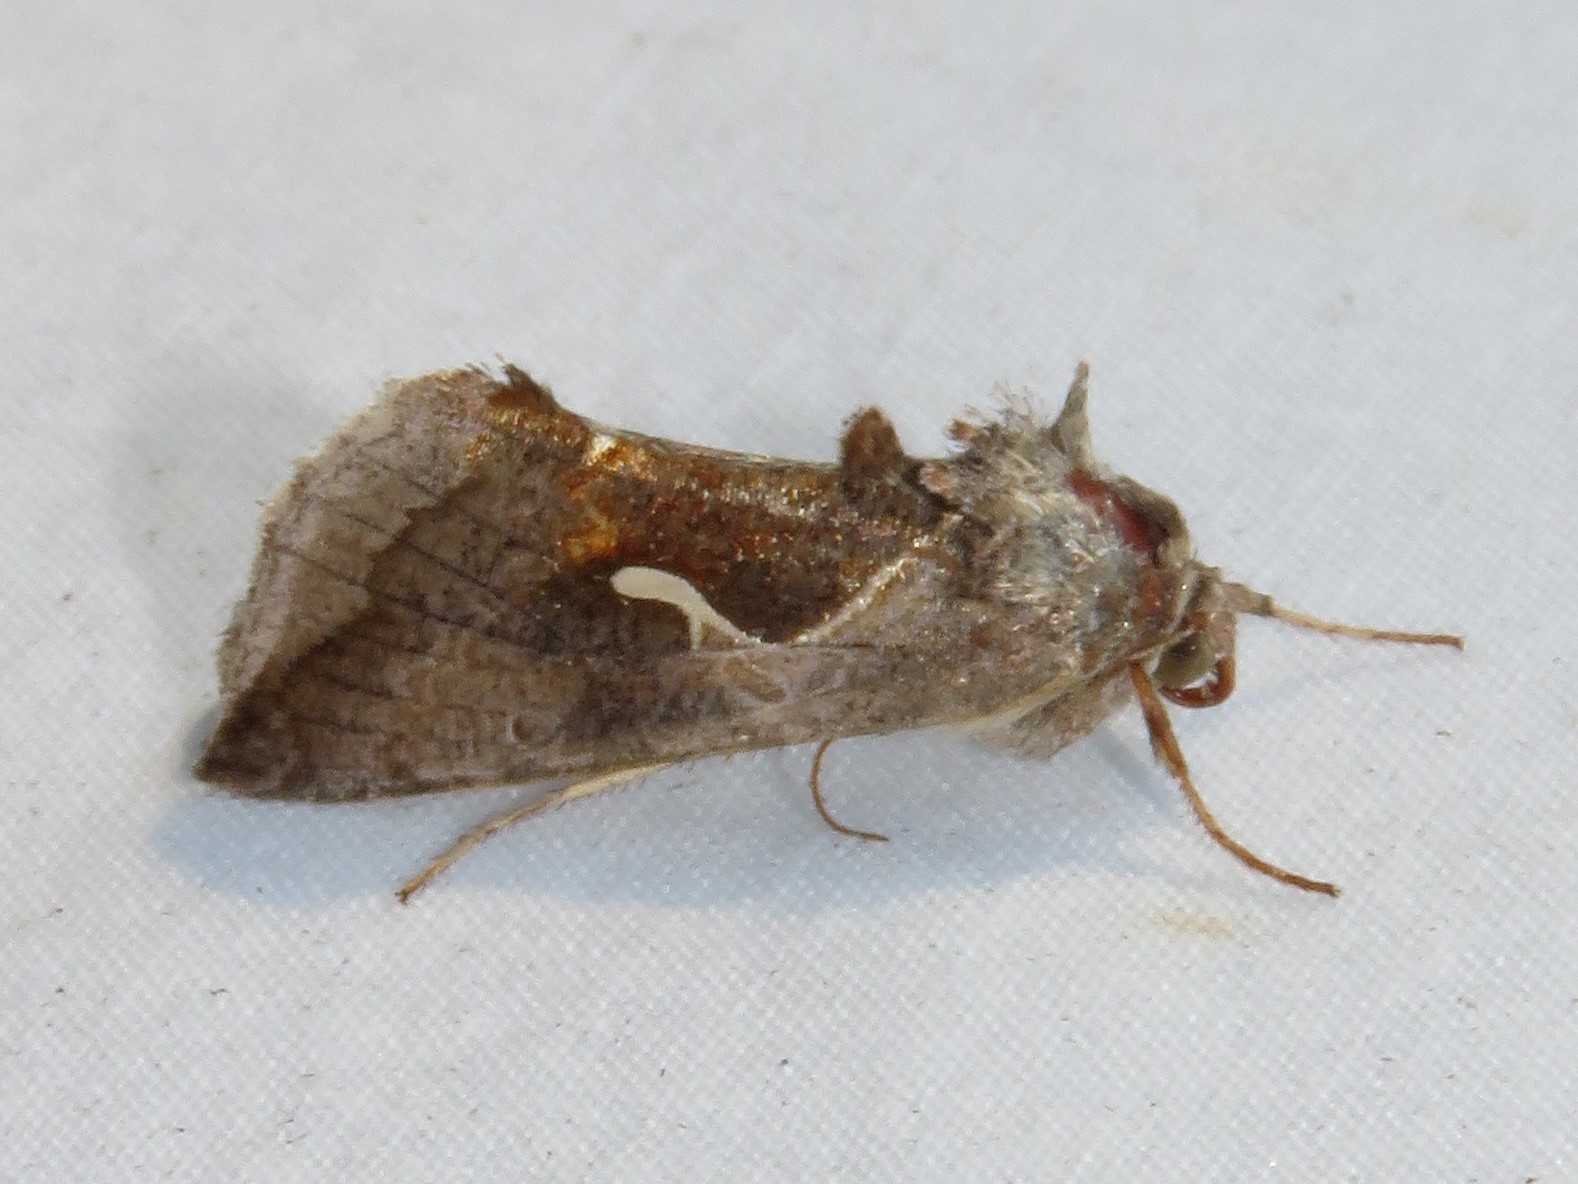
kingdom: Animalia
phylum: Arthropoda
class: Insecta
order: Lepidoptera
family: Noctuidae
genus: Anagrapha
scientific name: Anagrapha falcifera
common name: Celery looper
